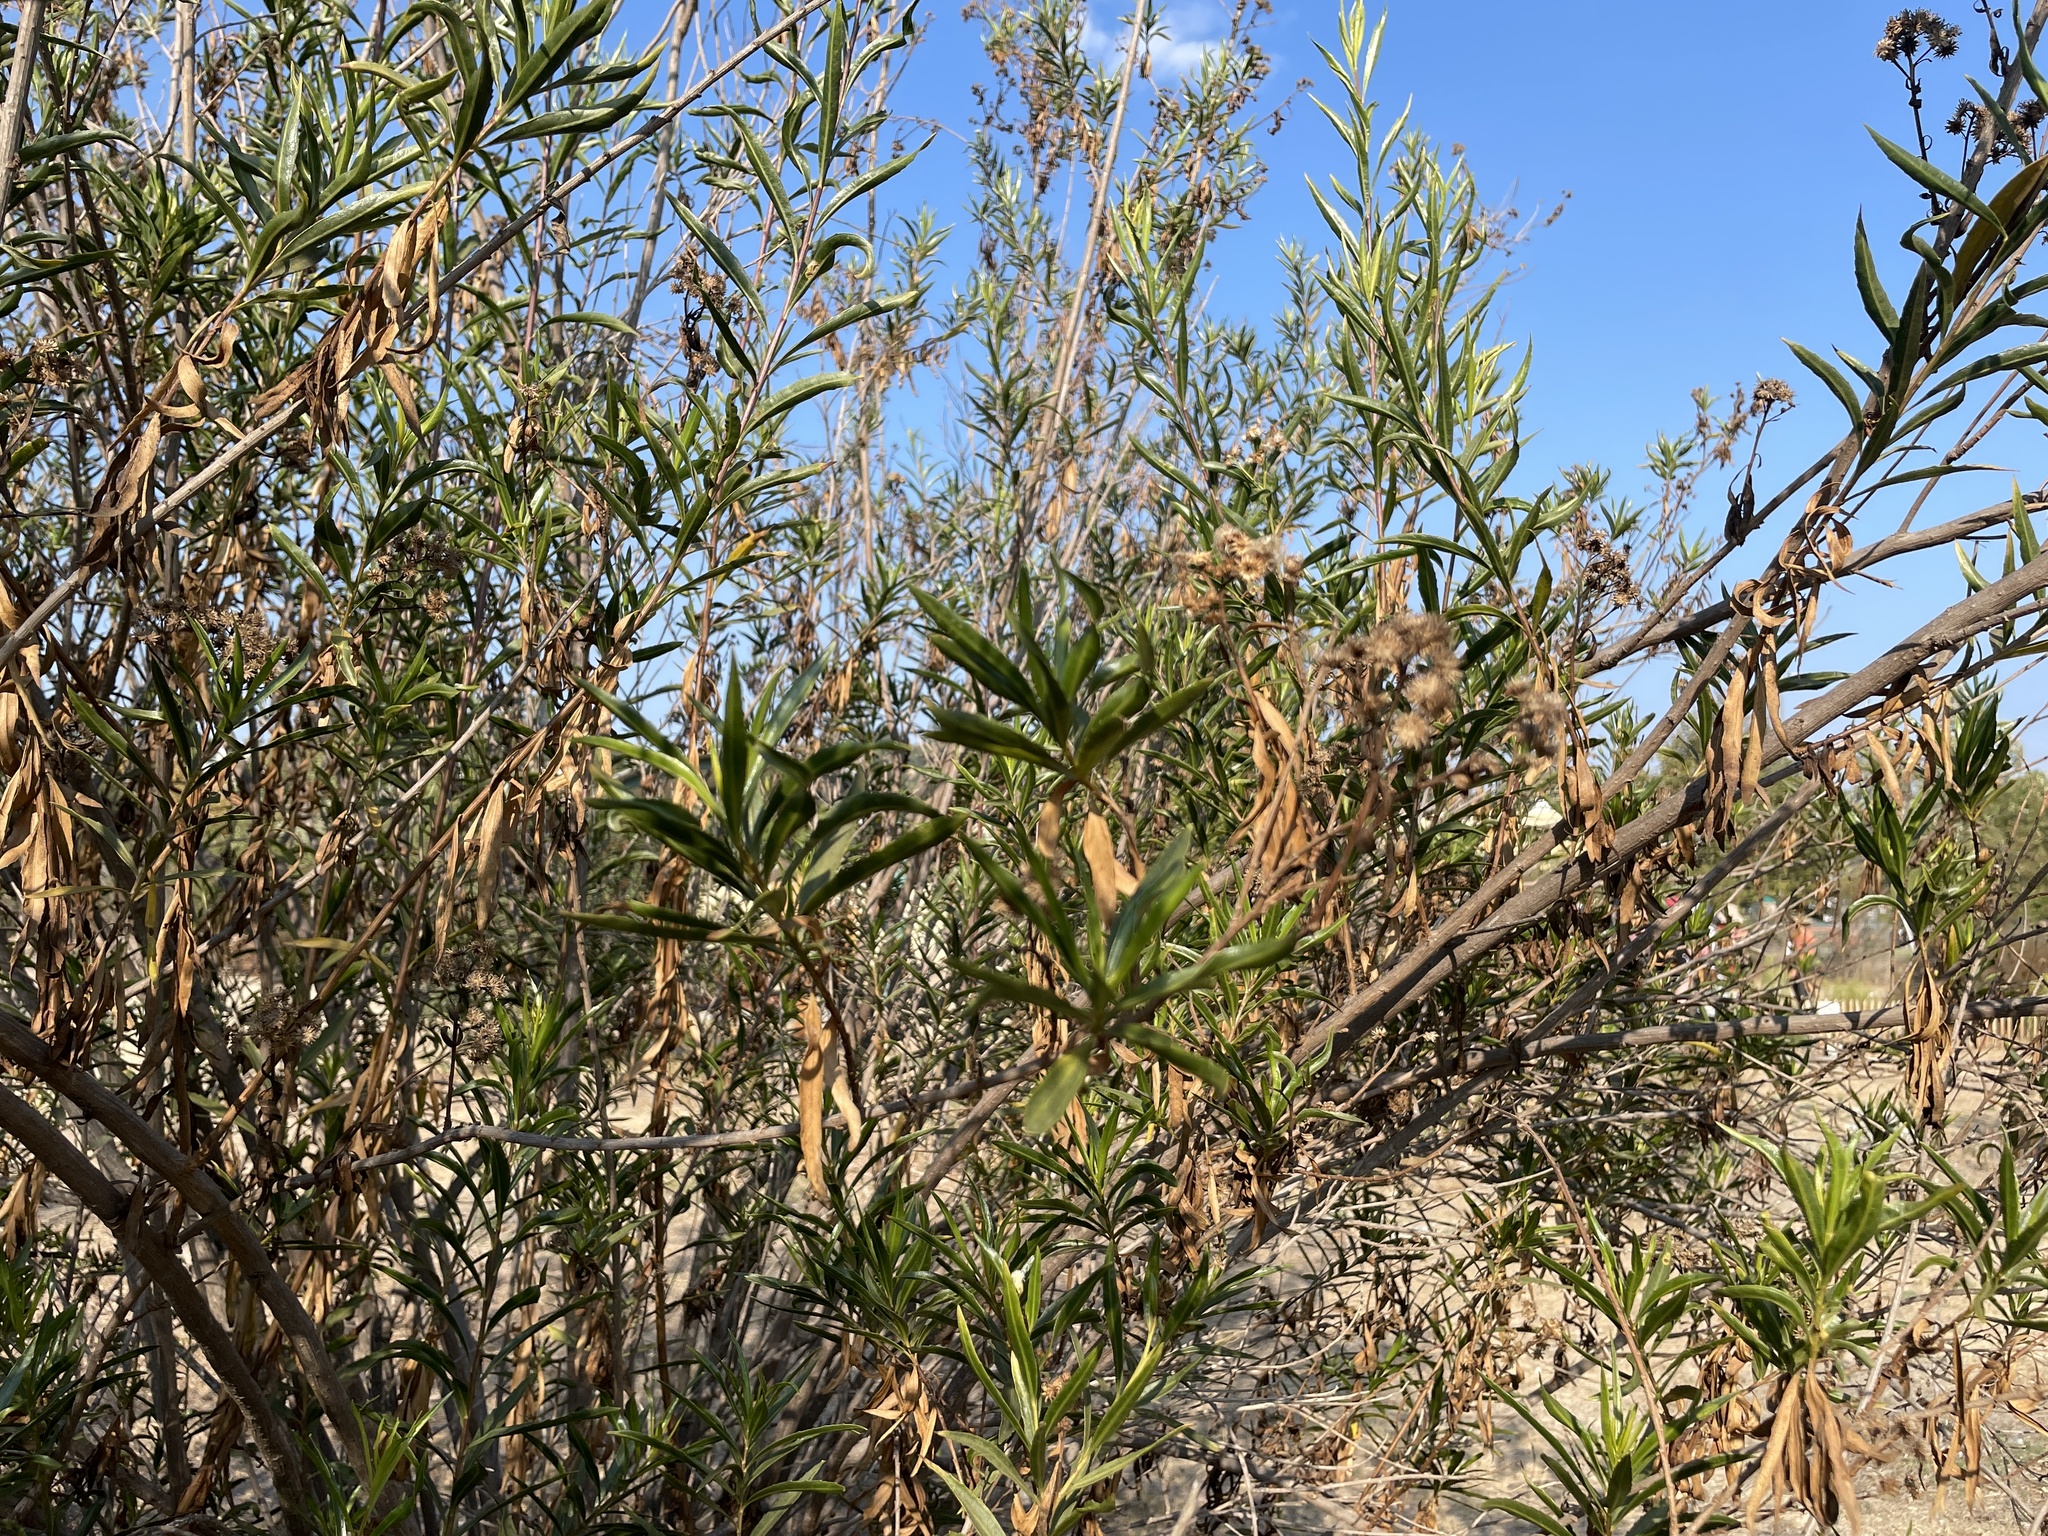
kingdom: Plantae
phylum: Tracheophyta
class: Magnoliopsida
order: Asterales
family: Asteraceae
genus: Baccharis
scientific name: Baccharis salicifolia
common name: Sticky baccharis
